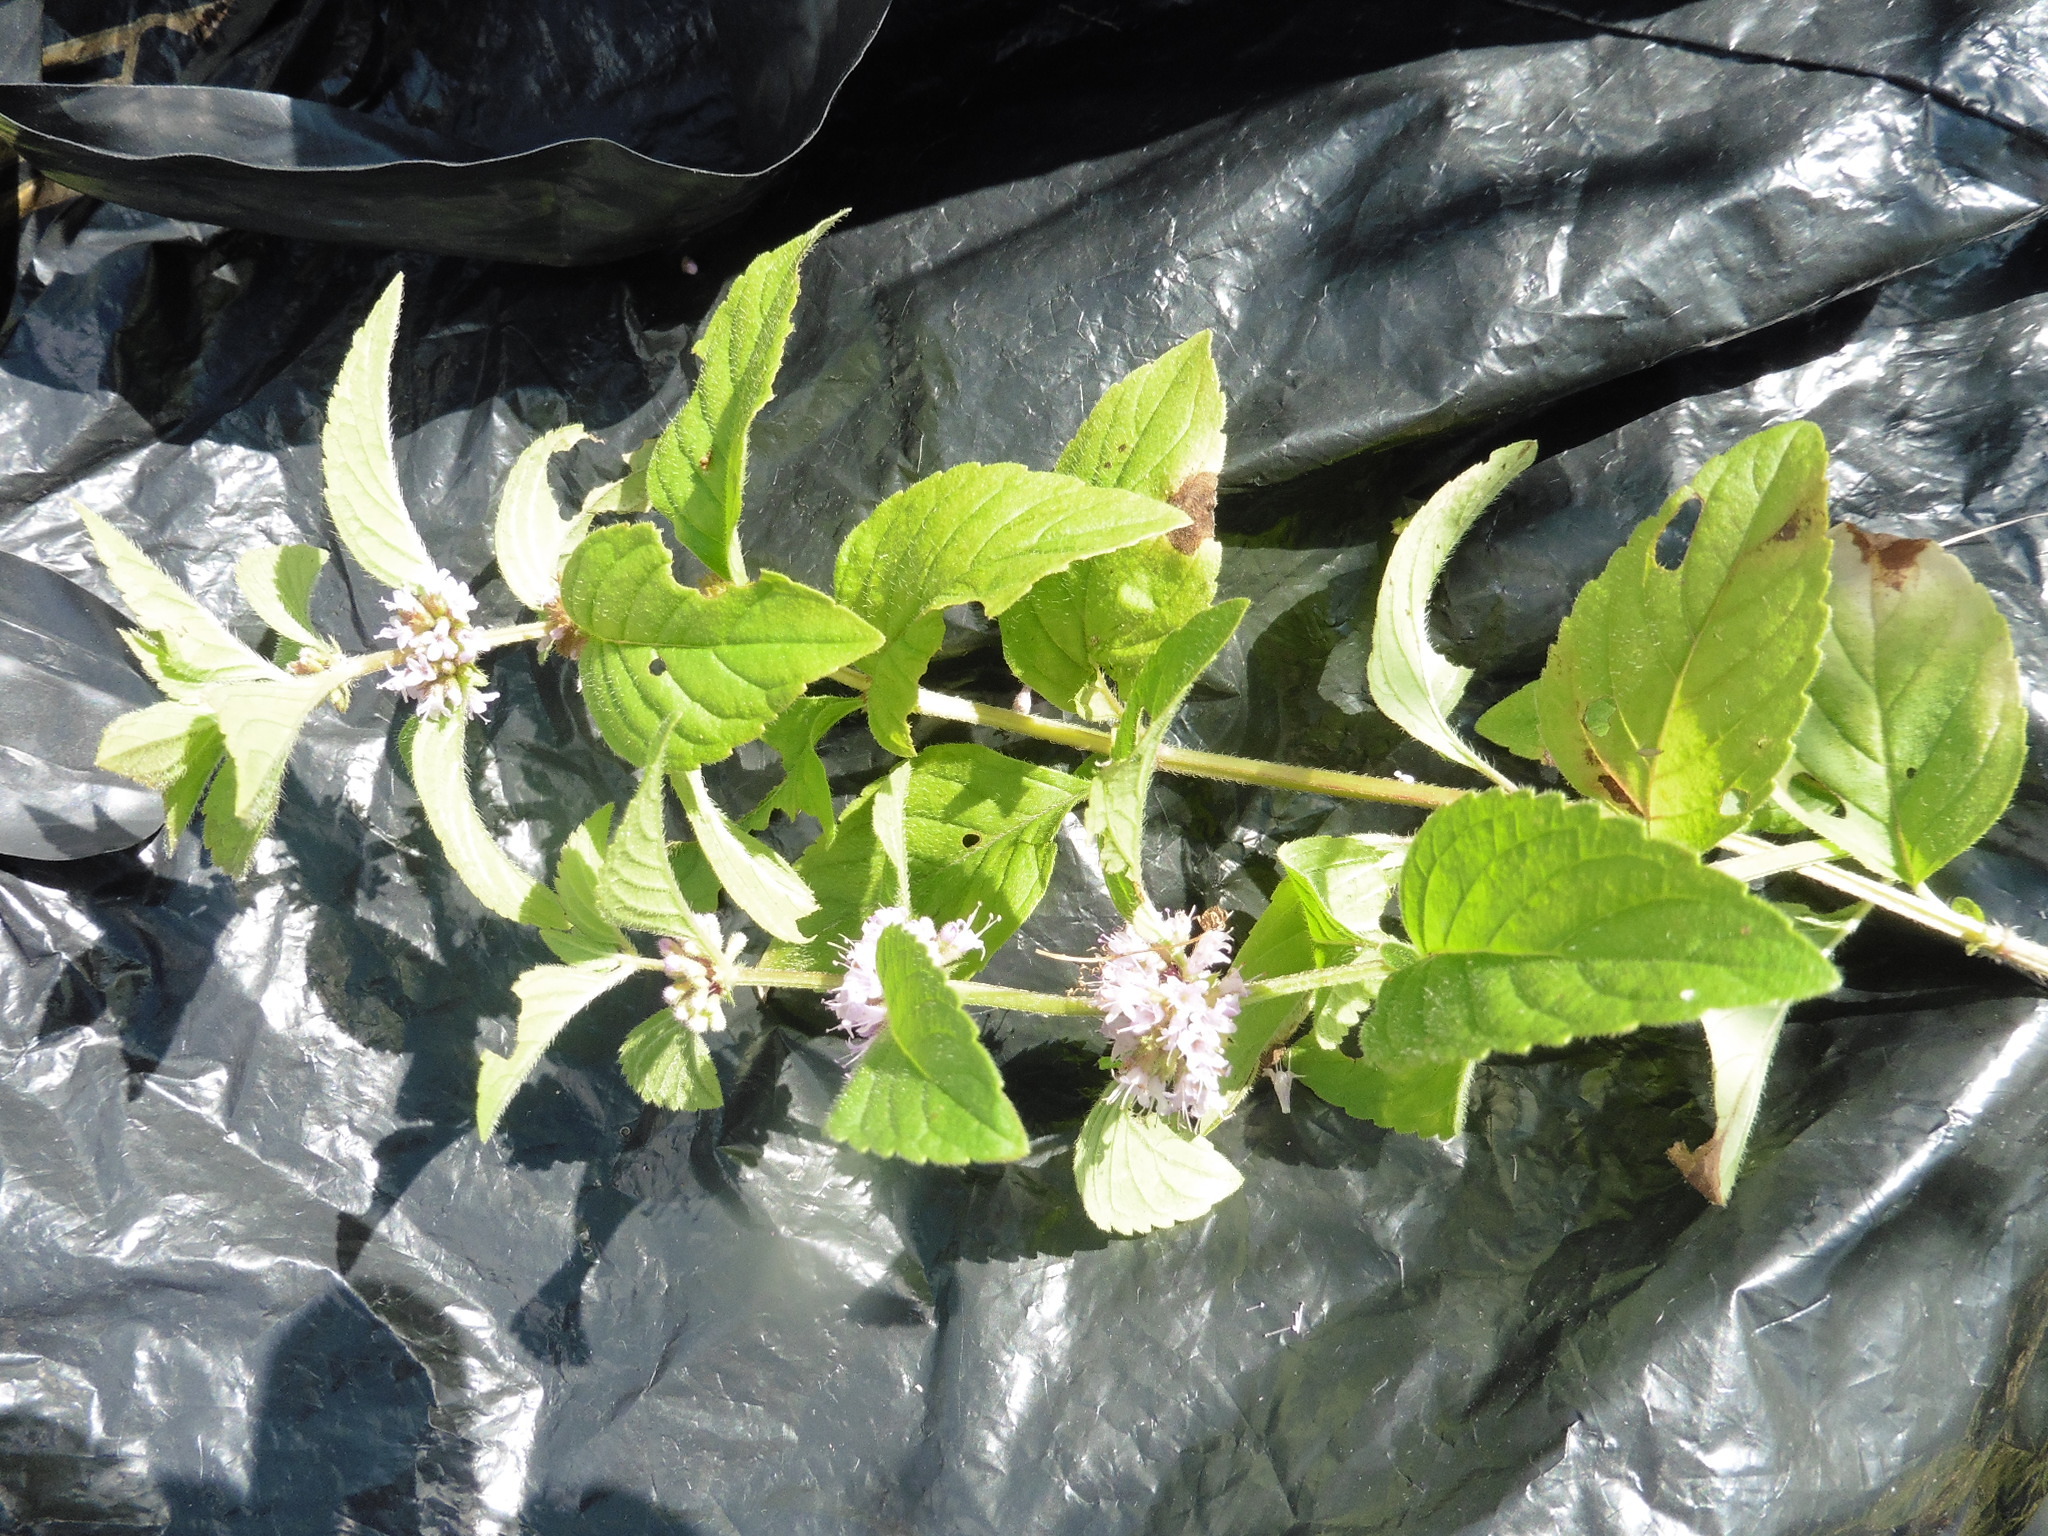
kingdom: Plantae
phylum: Tracheophyta
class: Magnoliopsida
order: Lamiales
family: Lamiaceae
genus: Mentha
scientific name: Mentha arvensis
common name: Corn mint
